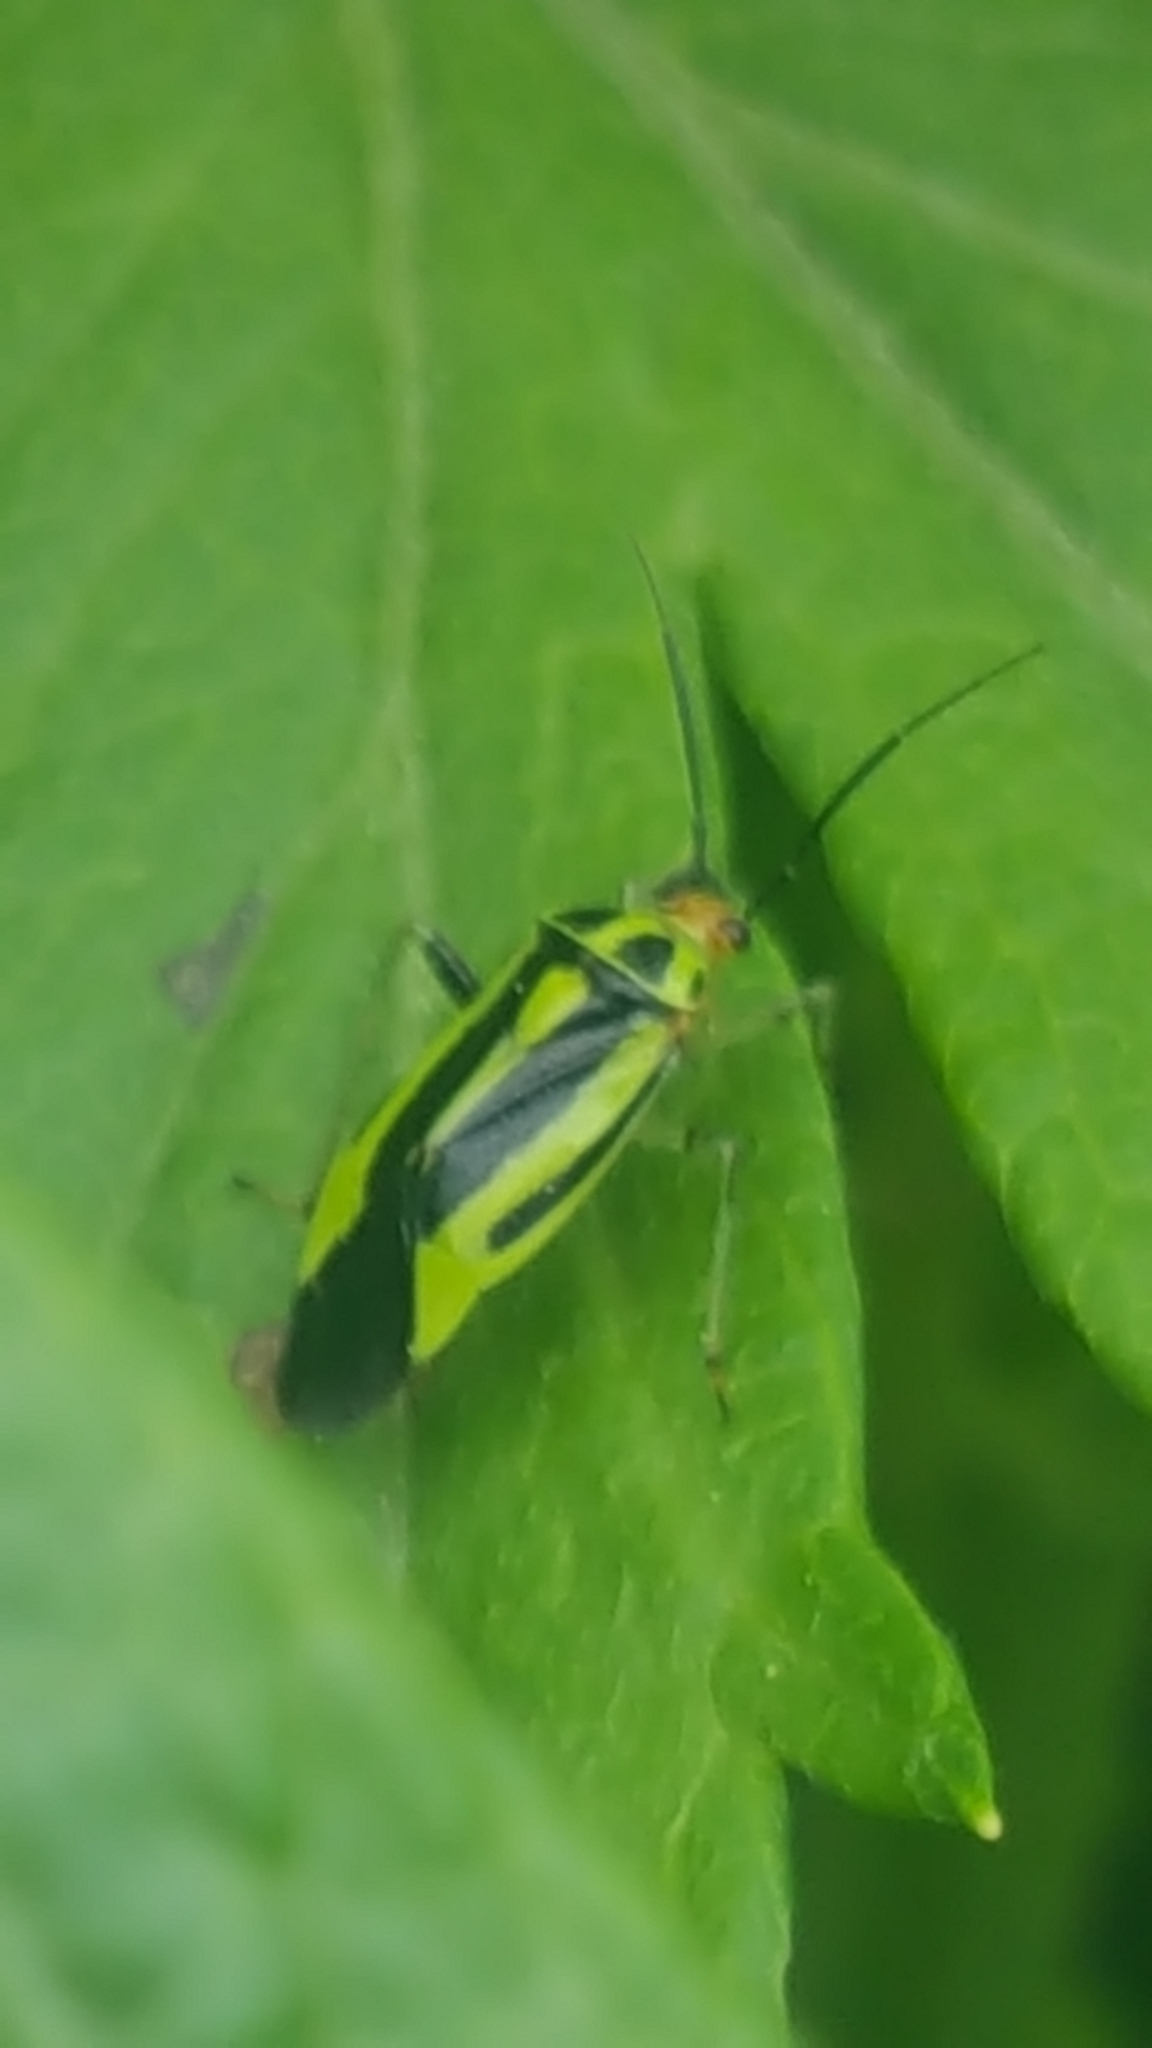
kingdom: Animalia
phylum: Arthropoda
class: Insecta
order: Hemiptera
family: Miridae
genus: Poecilocapsus
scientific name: Poecilocapsus lineatus
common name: Four-lined plant bug
